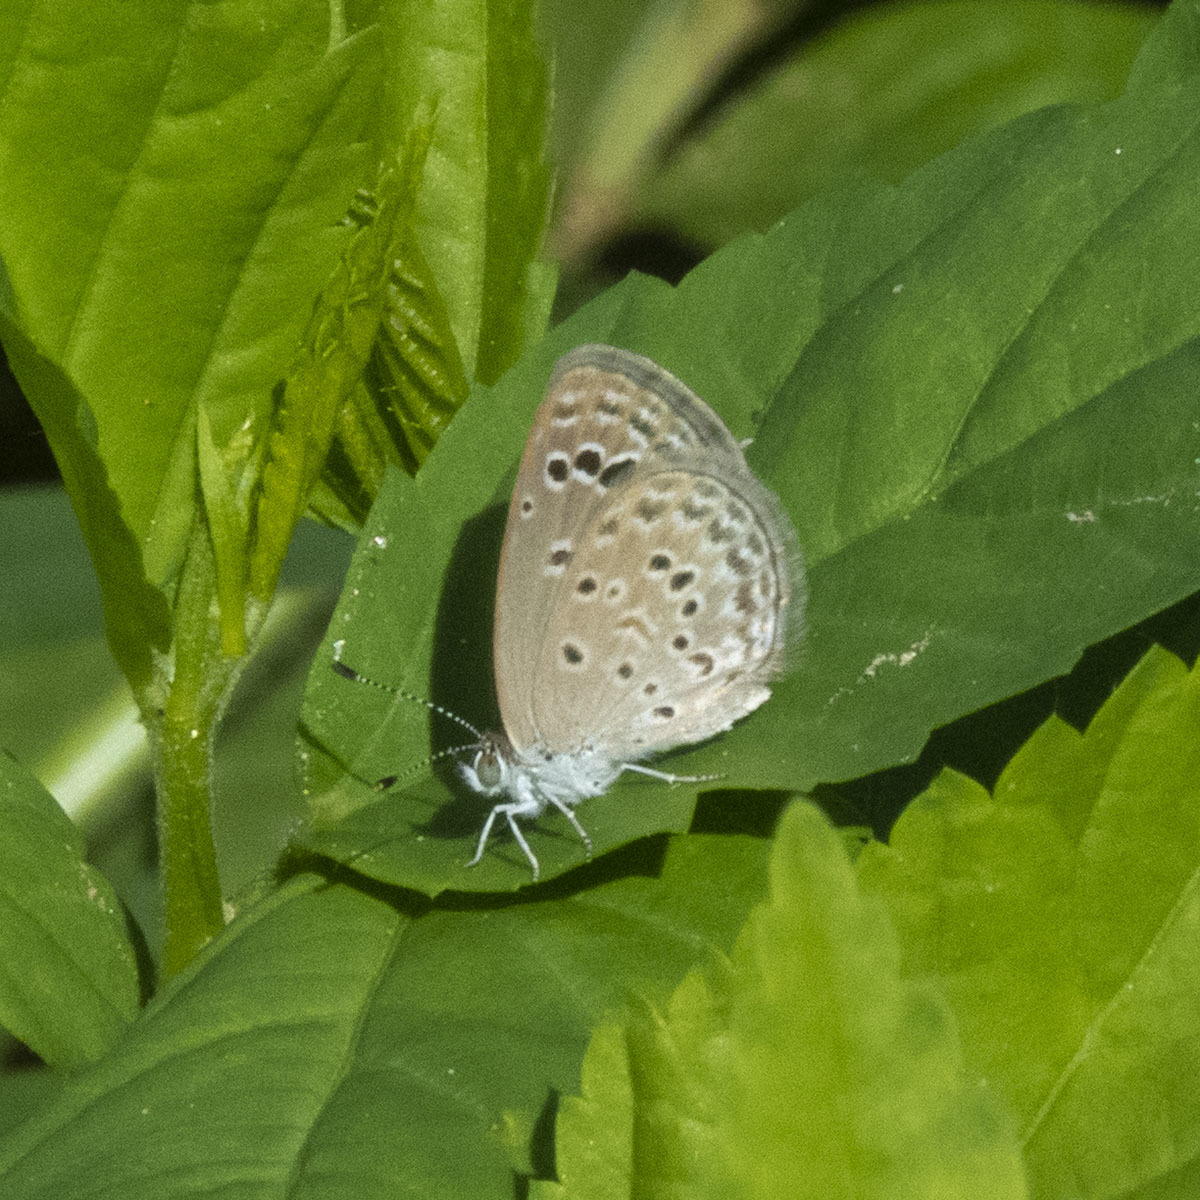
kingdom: Animalia
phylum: Arthropoda
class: Insecta
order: Lepidoptera
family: Lycaenidae
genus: Zizina
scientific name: Zizina otis
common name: Lesser grass blue
